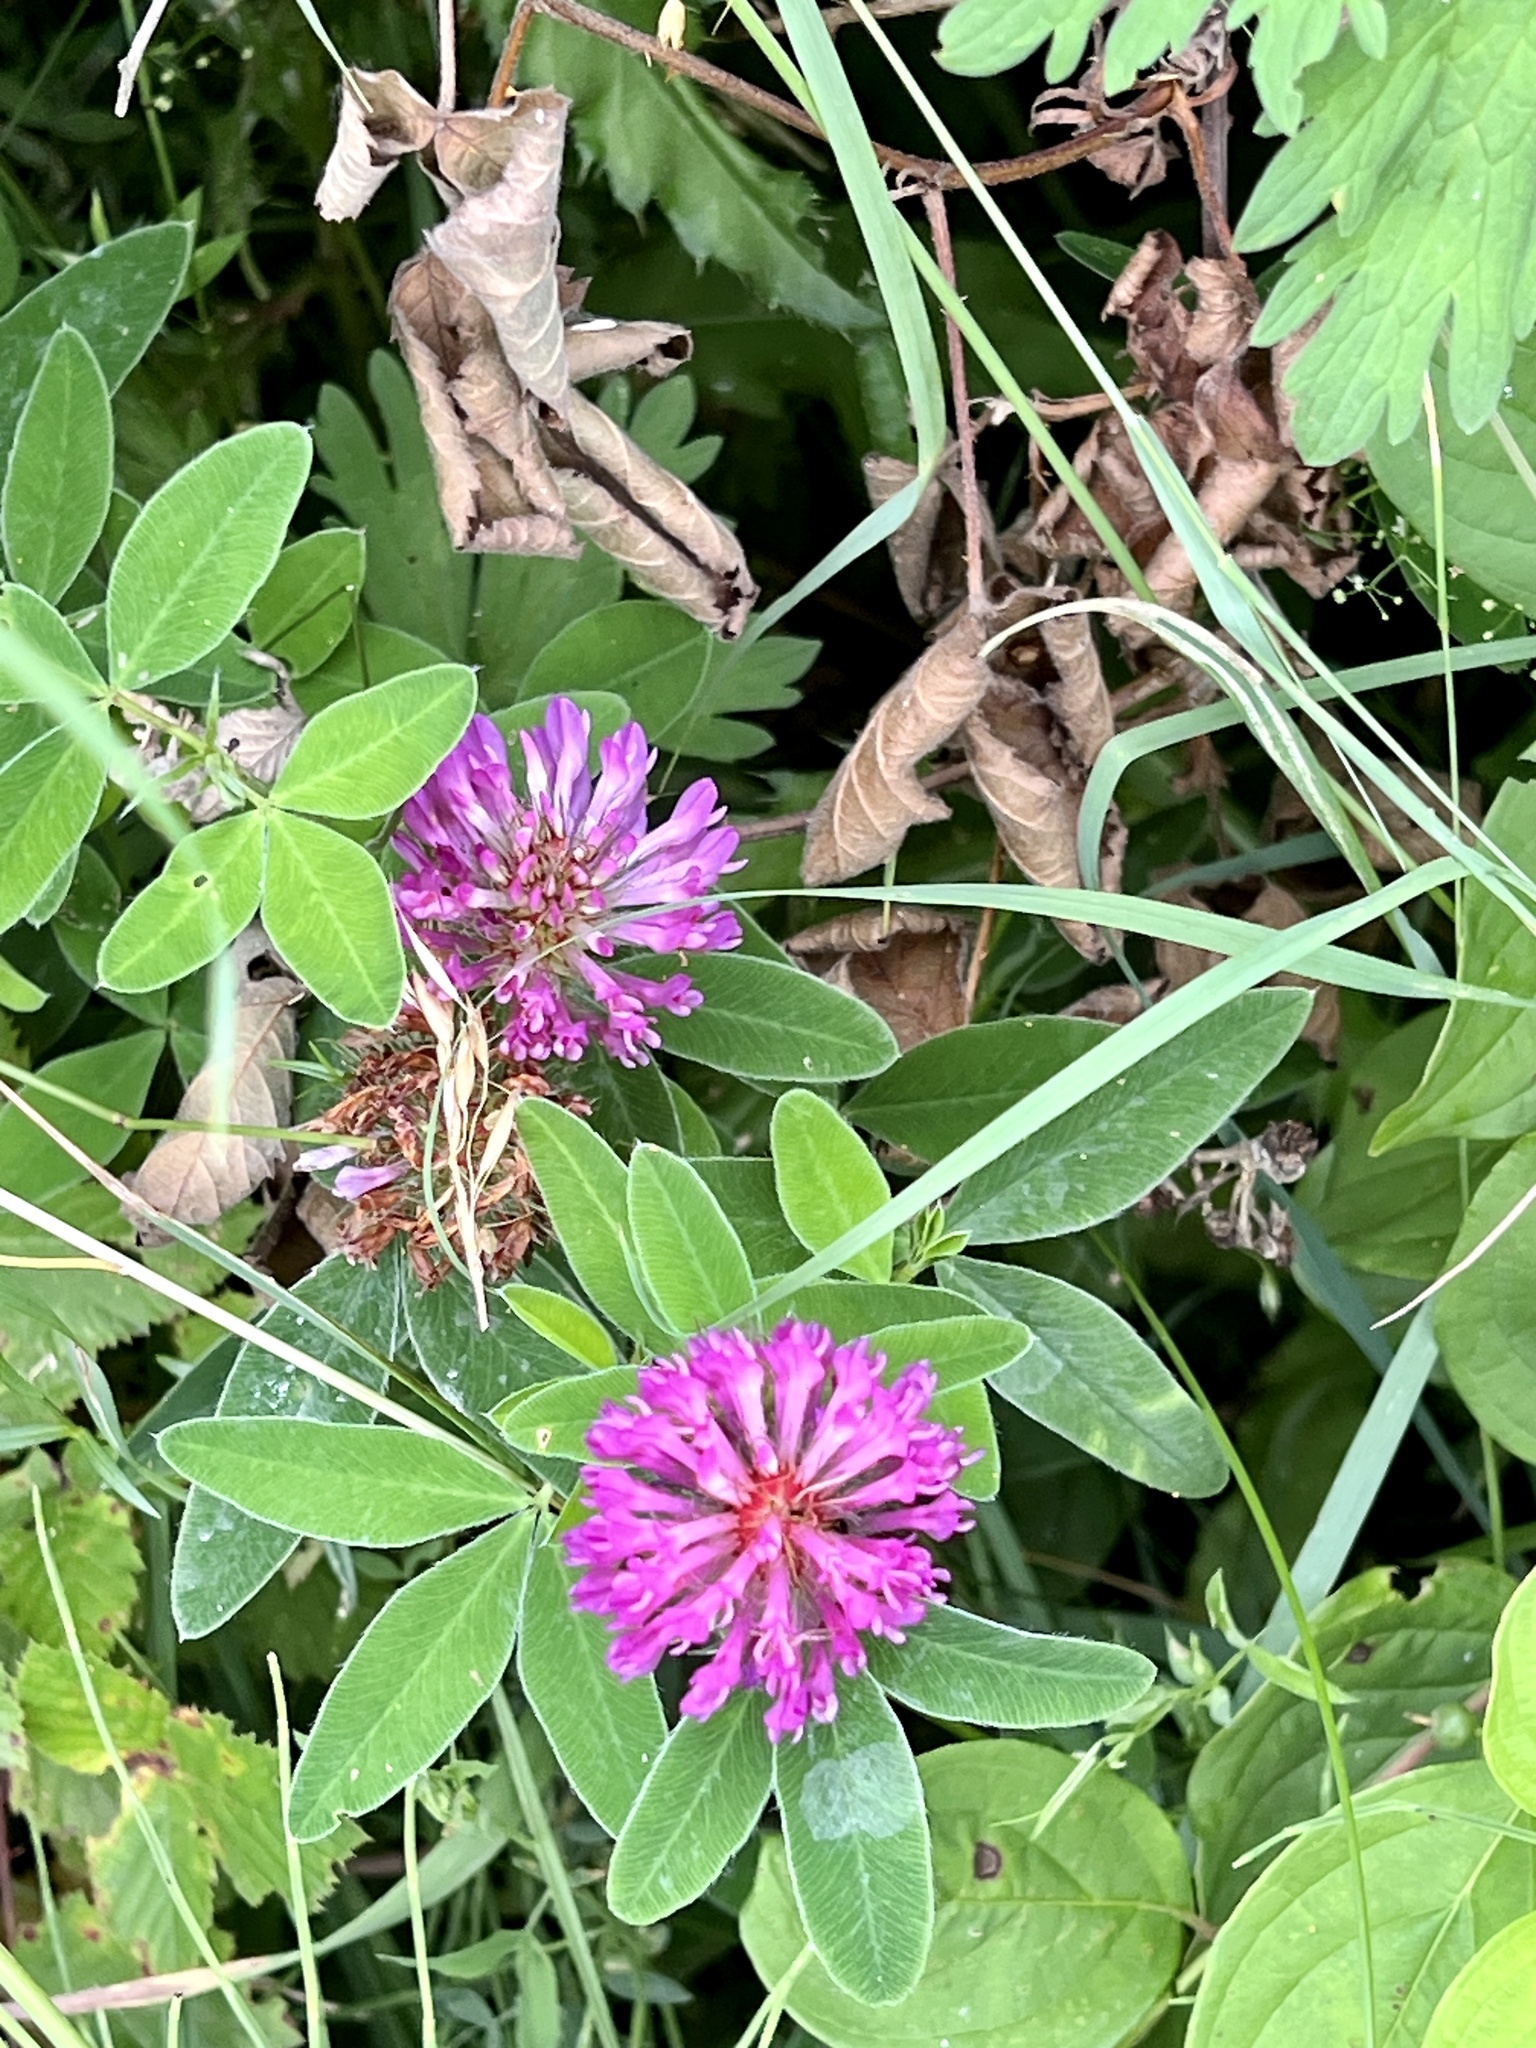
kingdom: Plantae
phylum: Tracheophyta
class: Magnoliopsida
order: Fabales
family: Fabaceae
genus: Trifolium
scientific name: Trifolium medium
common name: Zigzag clover
